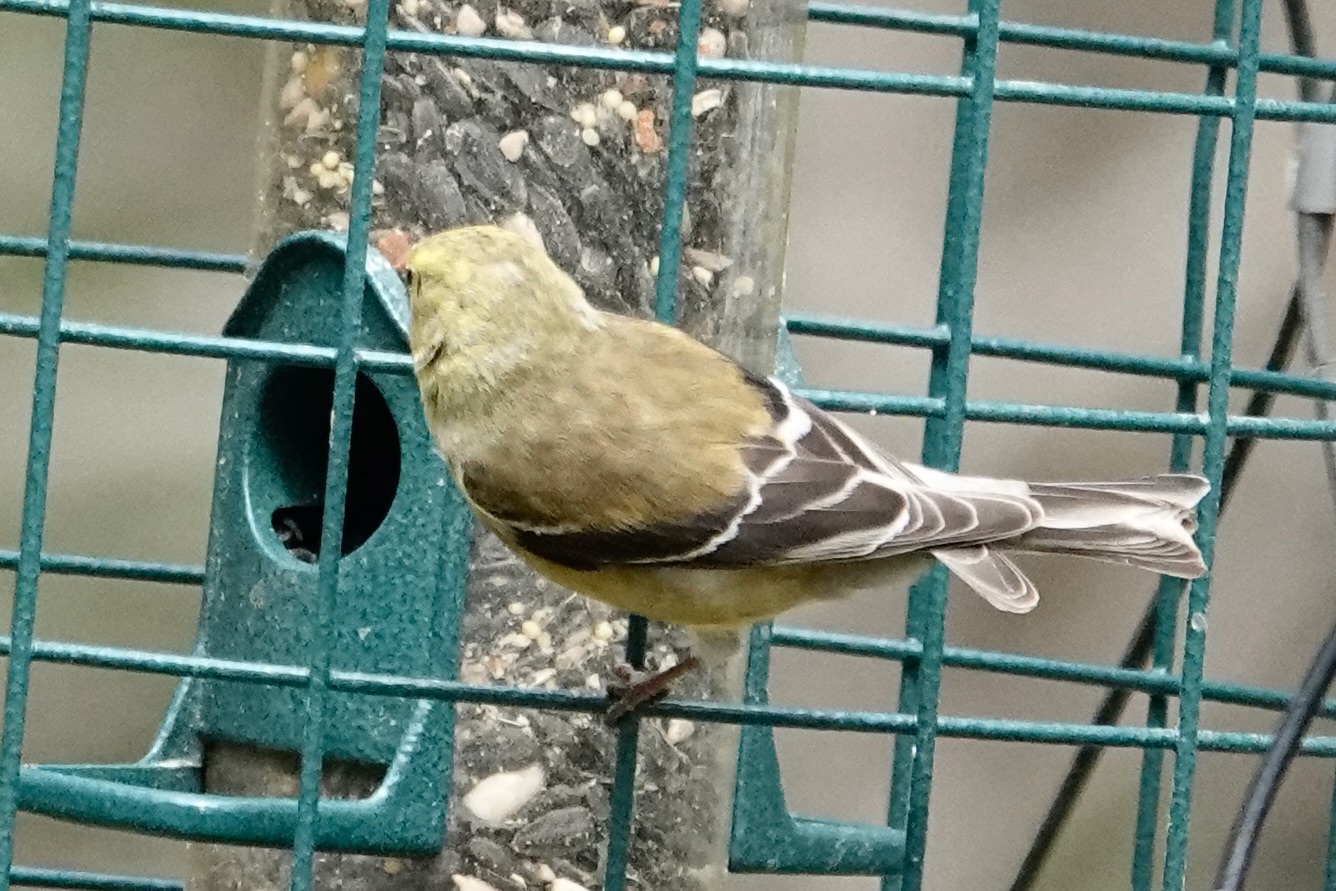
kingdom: Animalia
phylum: Chordata
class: Aves
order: Passeriformes
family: Fringillidae
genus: Spinus
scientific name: Spinus tristis
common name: American goldfinch
